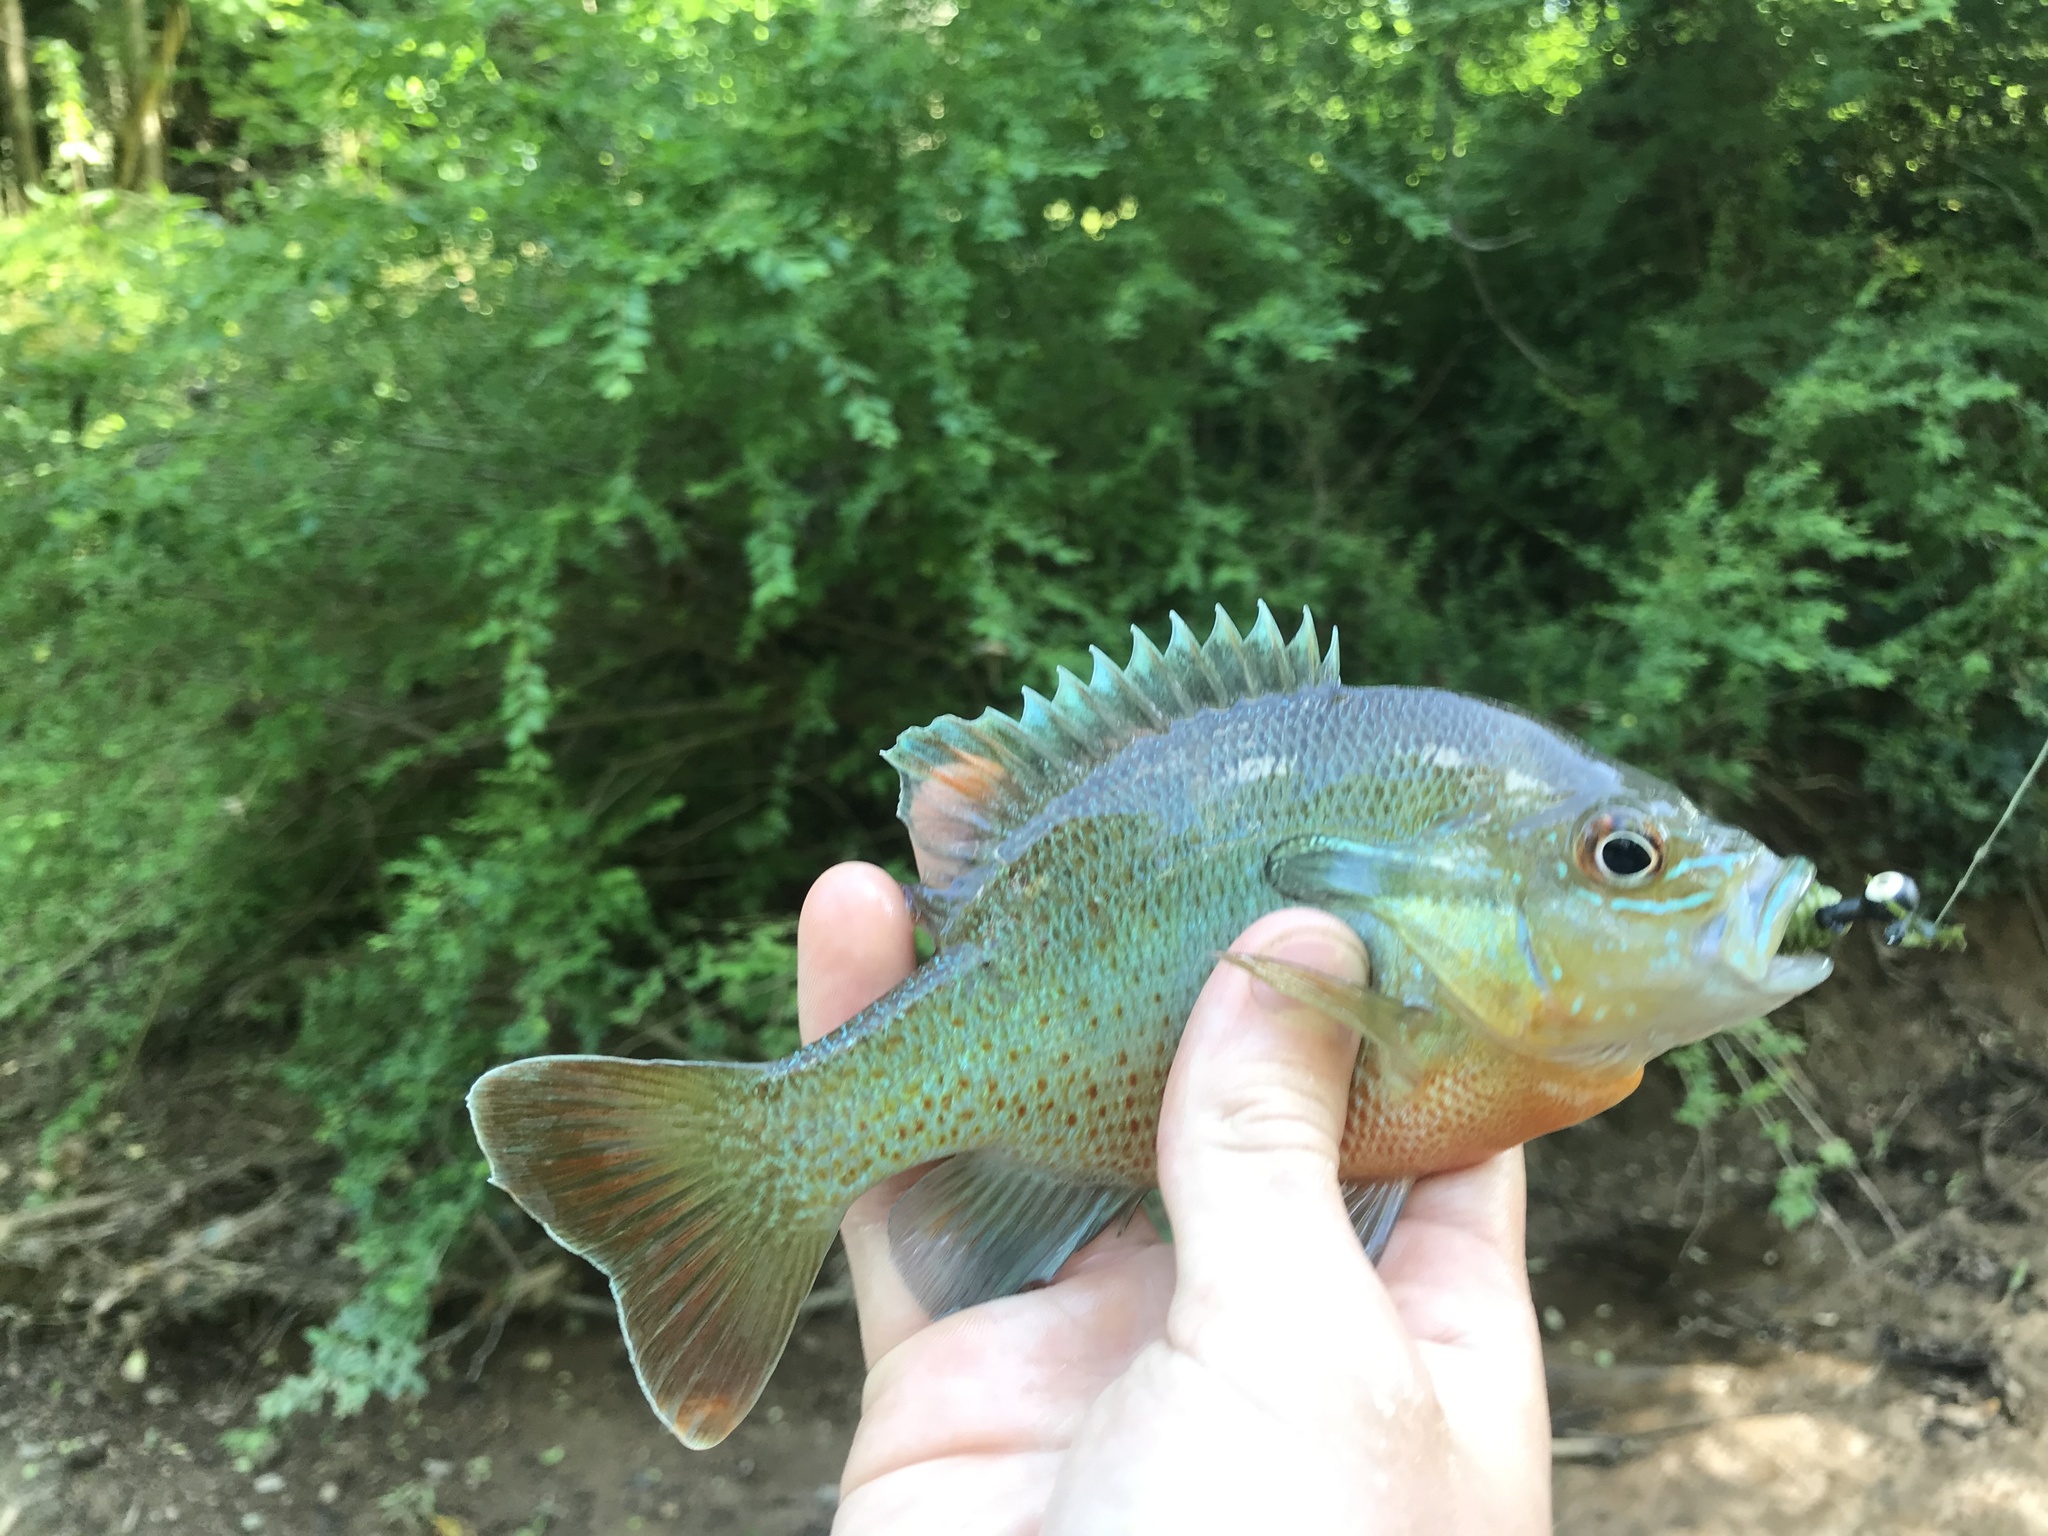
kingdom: Animalia
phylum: Chordata
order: Perciformes
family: Centrarchidae
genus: Lepomis
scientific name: Lepomis auritus
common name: Redbreast sunfish
